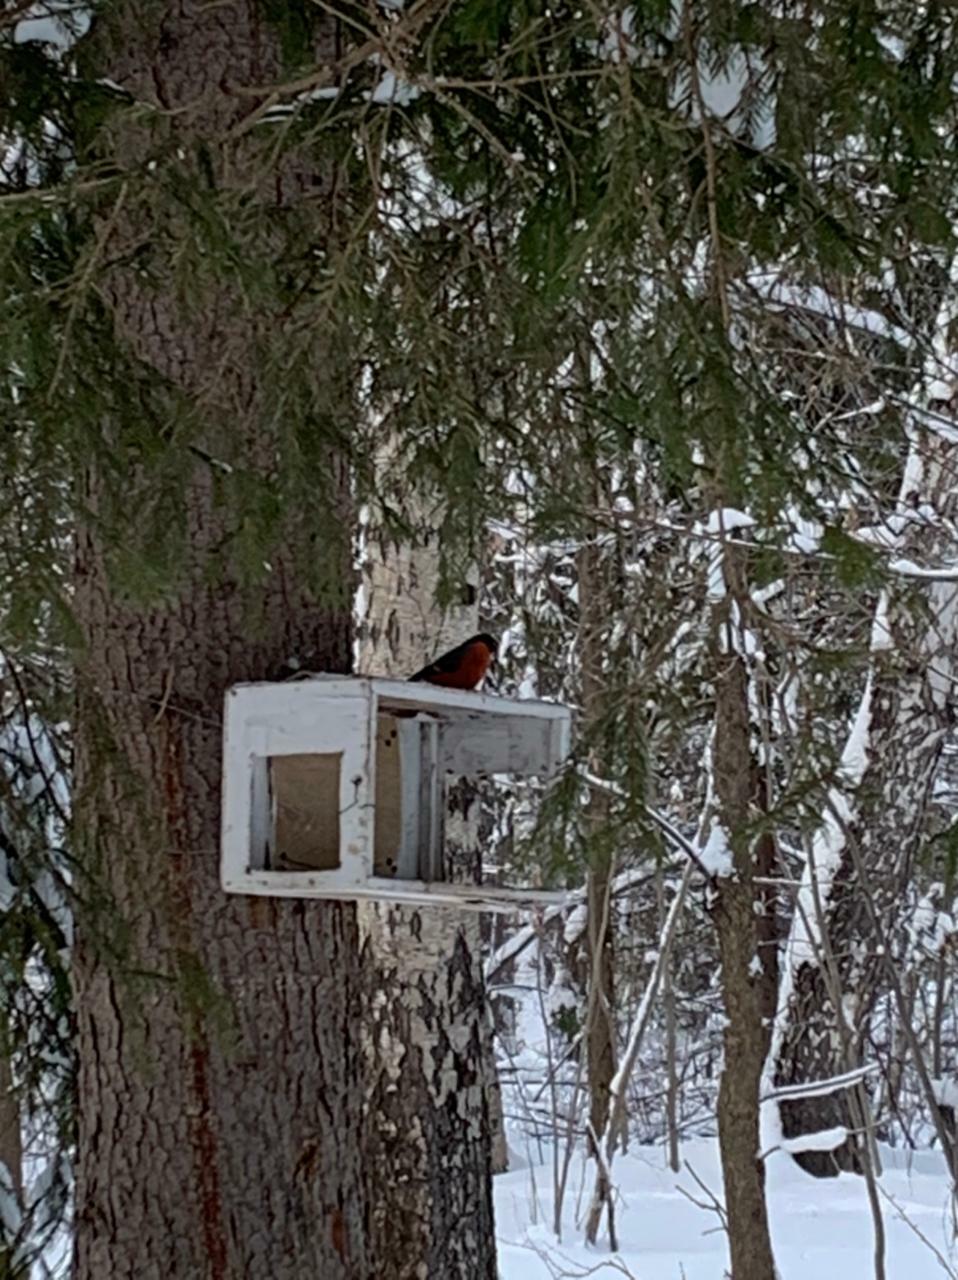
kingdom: Animalia
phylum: Chordata
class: Aves
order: Passeriformes
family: Fringillidae
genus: Pyrrhula
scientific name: Pyrrhula pyrrhula
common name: Eurasian bullfinch
